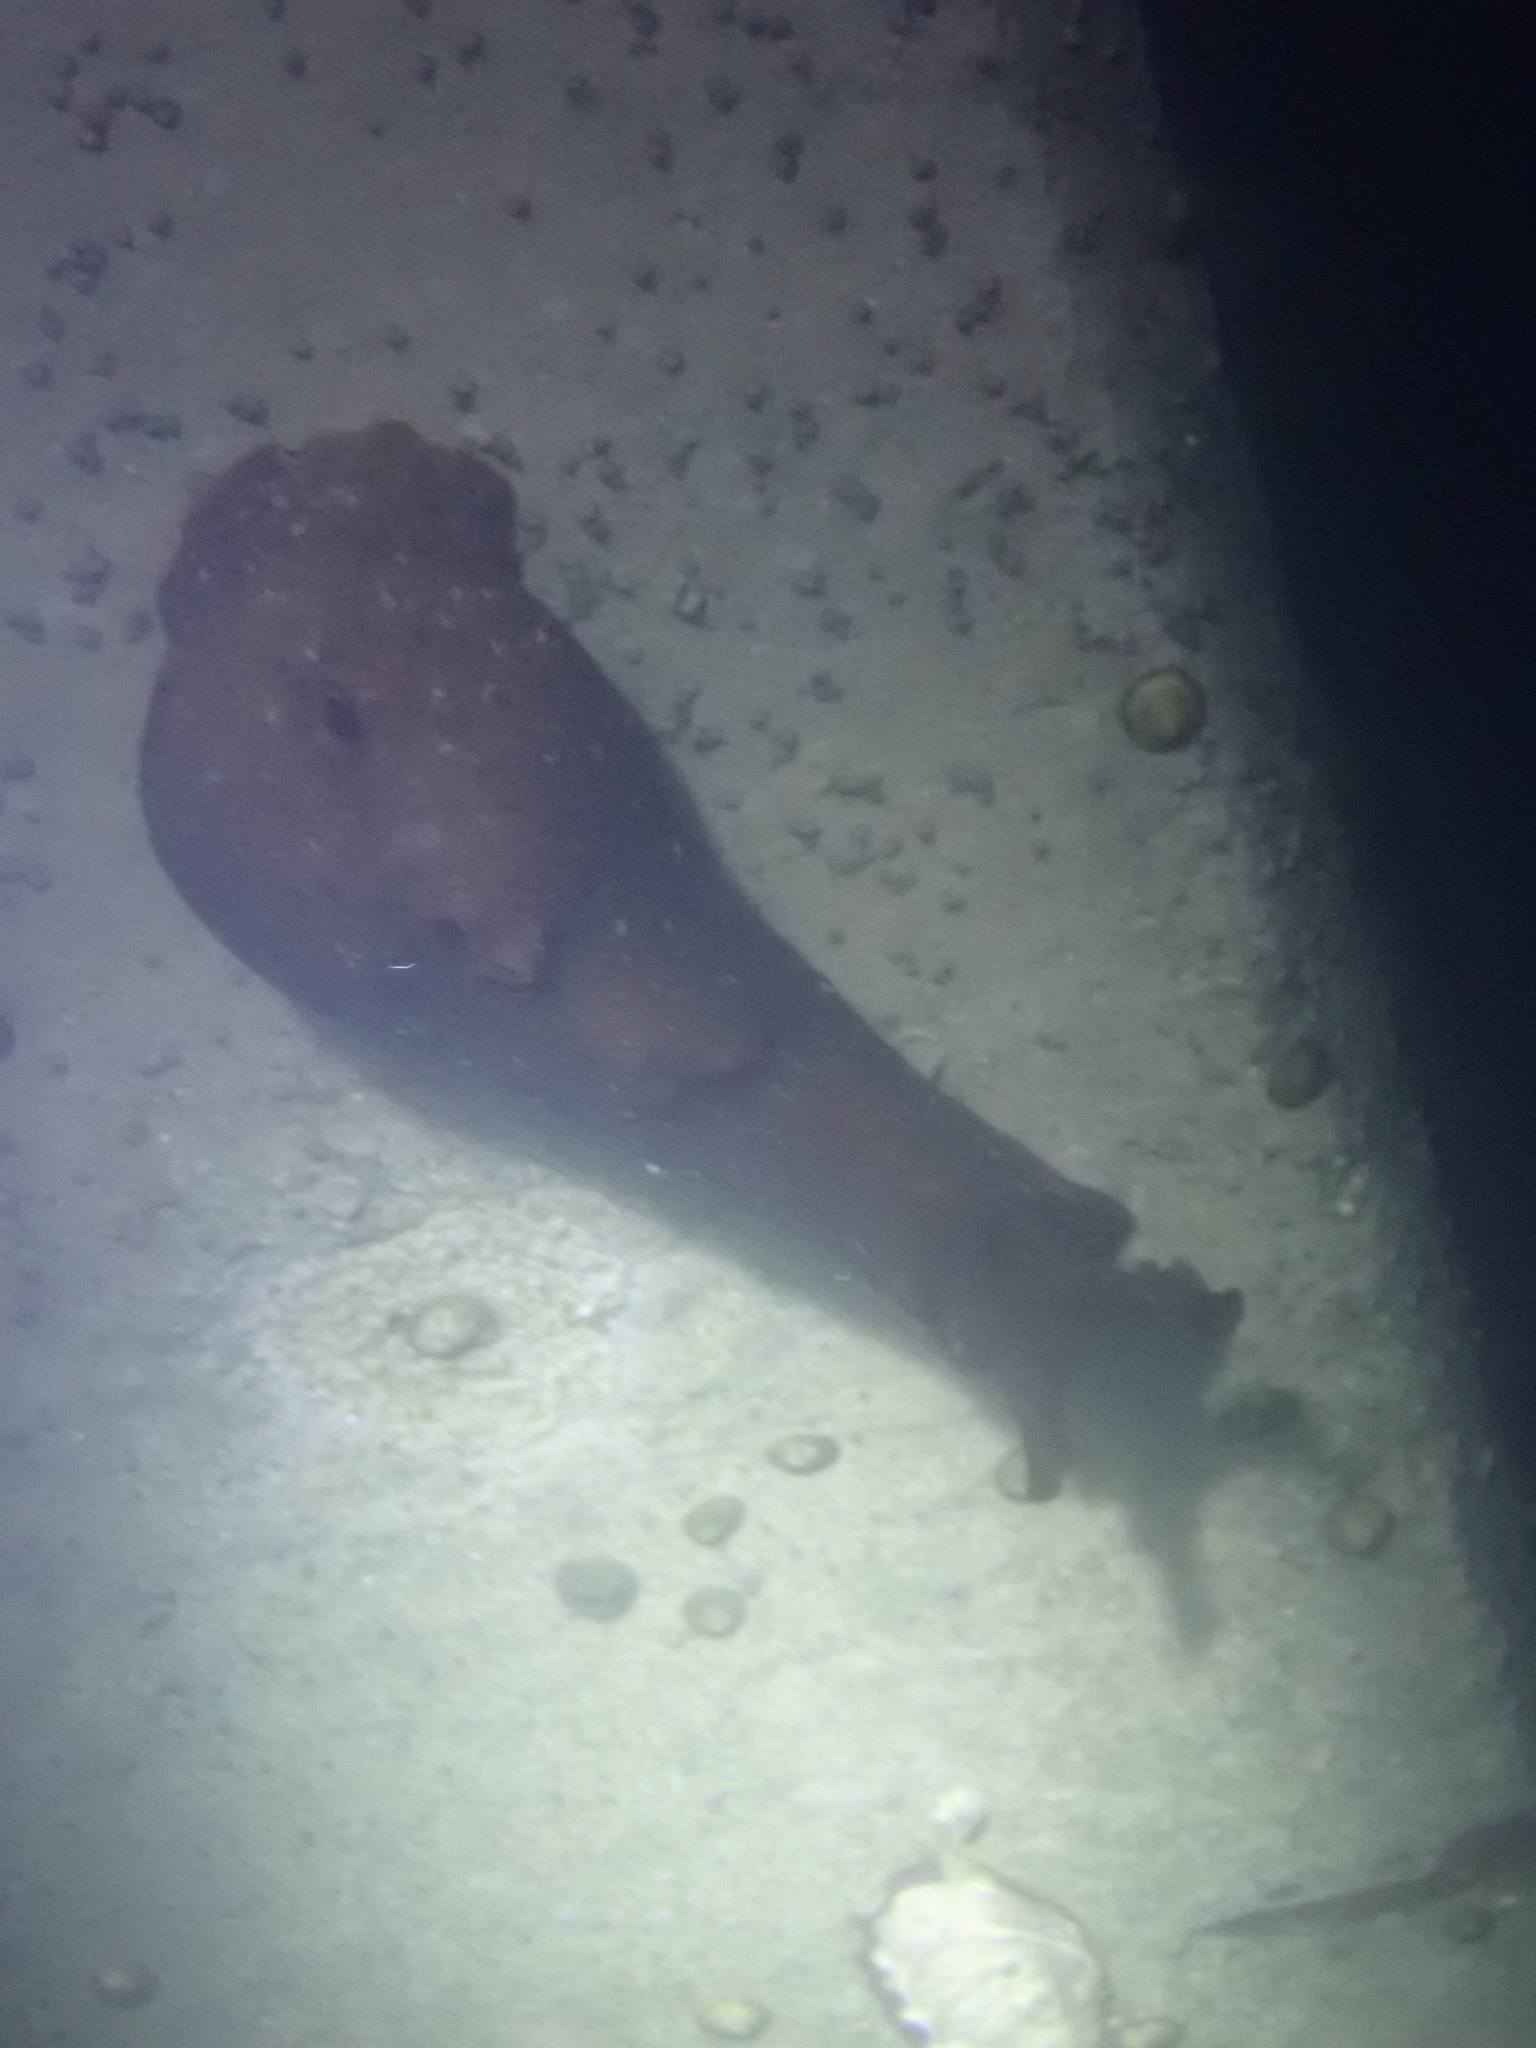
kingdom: Animalia
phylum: Mollusca
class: Gastropoda
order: Aplysiida
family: Aplysiidae
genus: Aplysia
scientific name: Aplysia californica
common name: California seahare
